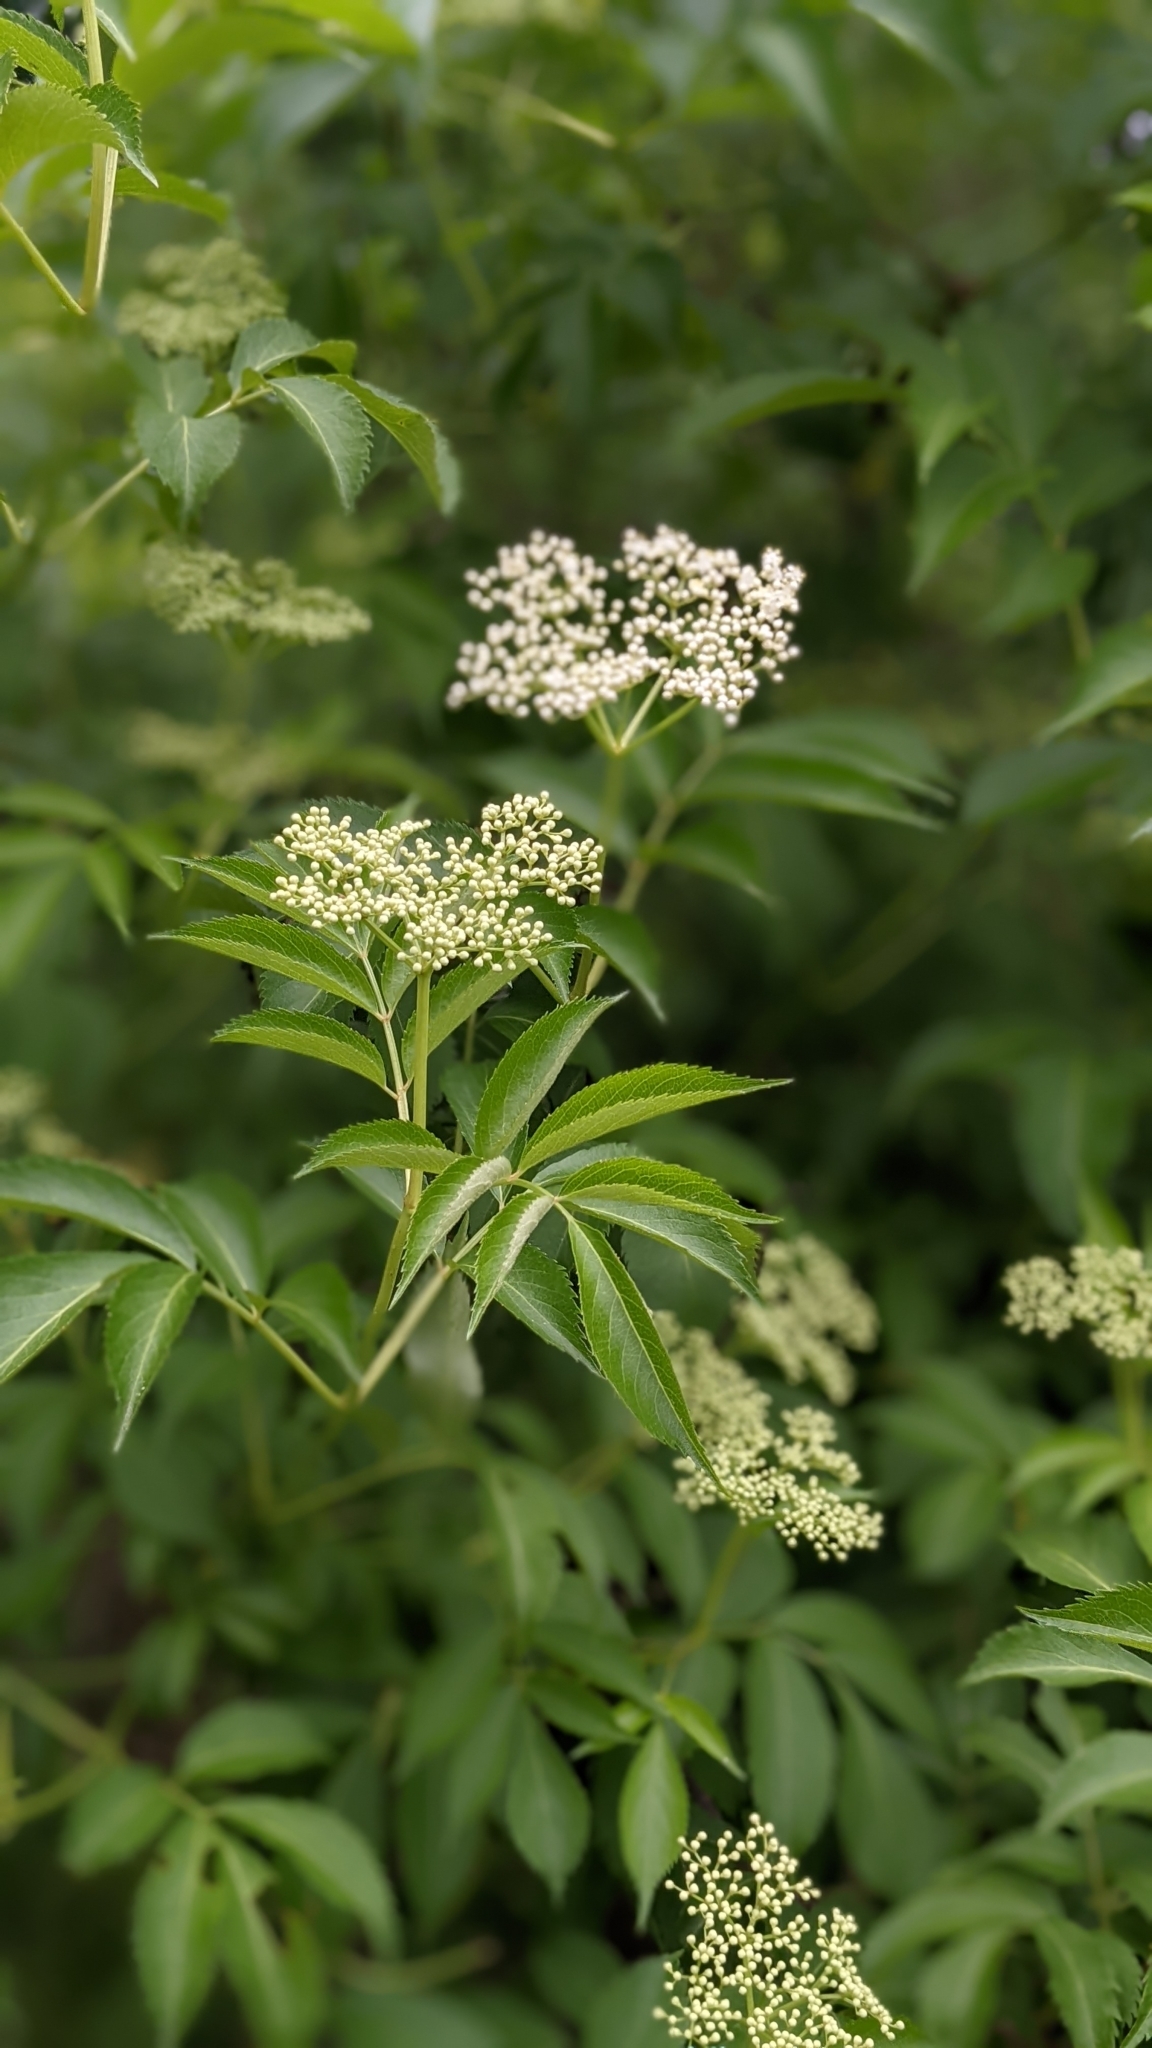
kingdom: Plantae
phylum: Tracheophyta
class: Magnoliopsida
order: Dipsacales
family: Viburnaceae
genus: Sambucus
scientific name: Sambucus canadensis
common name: American elder
